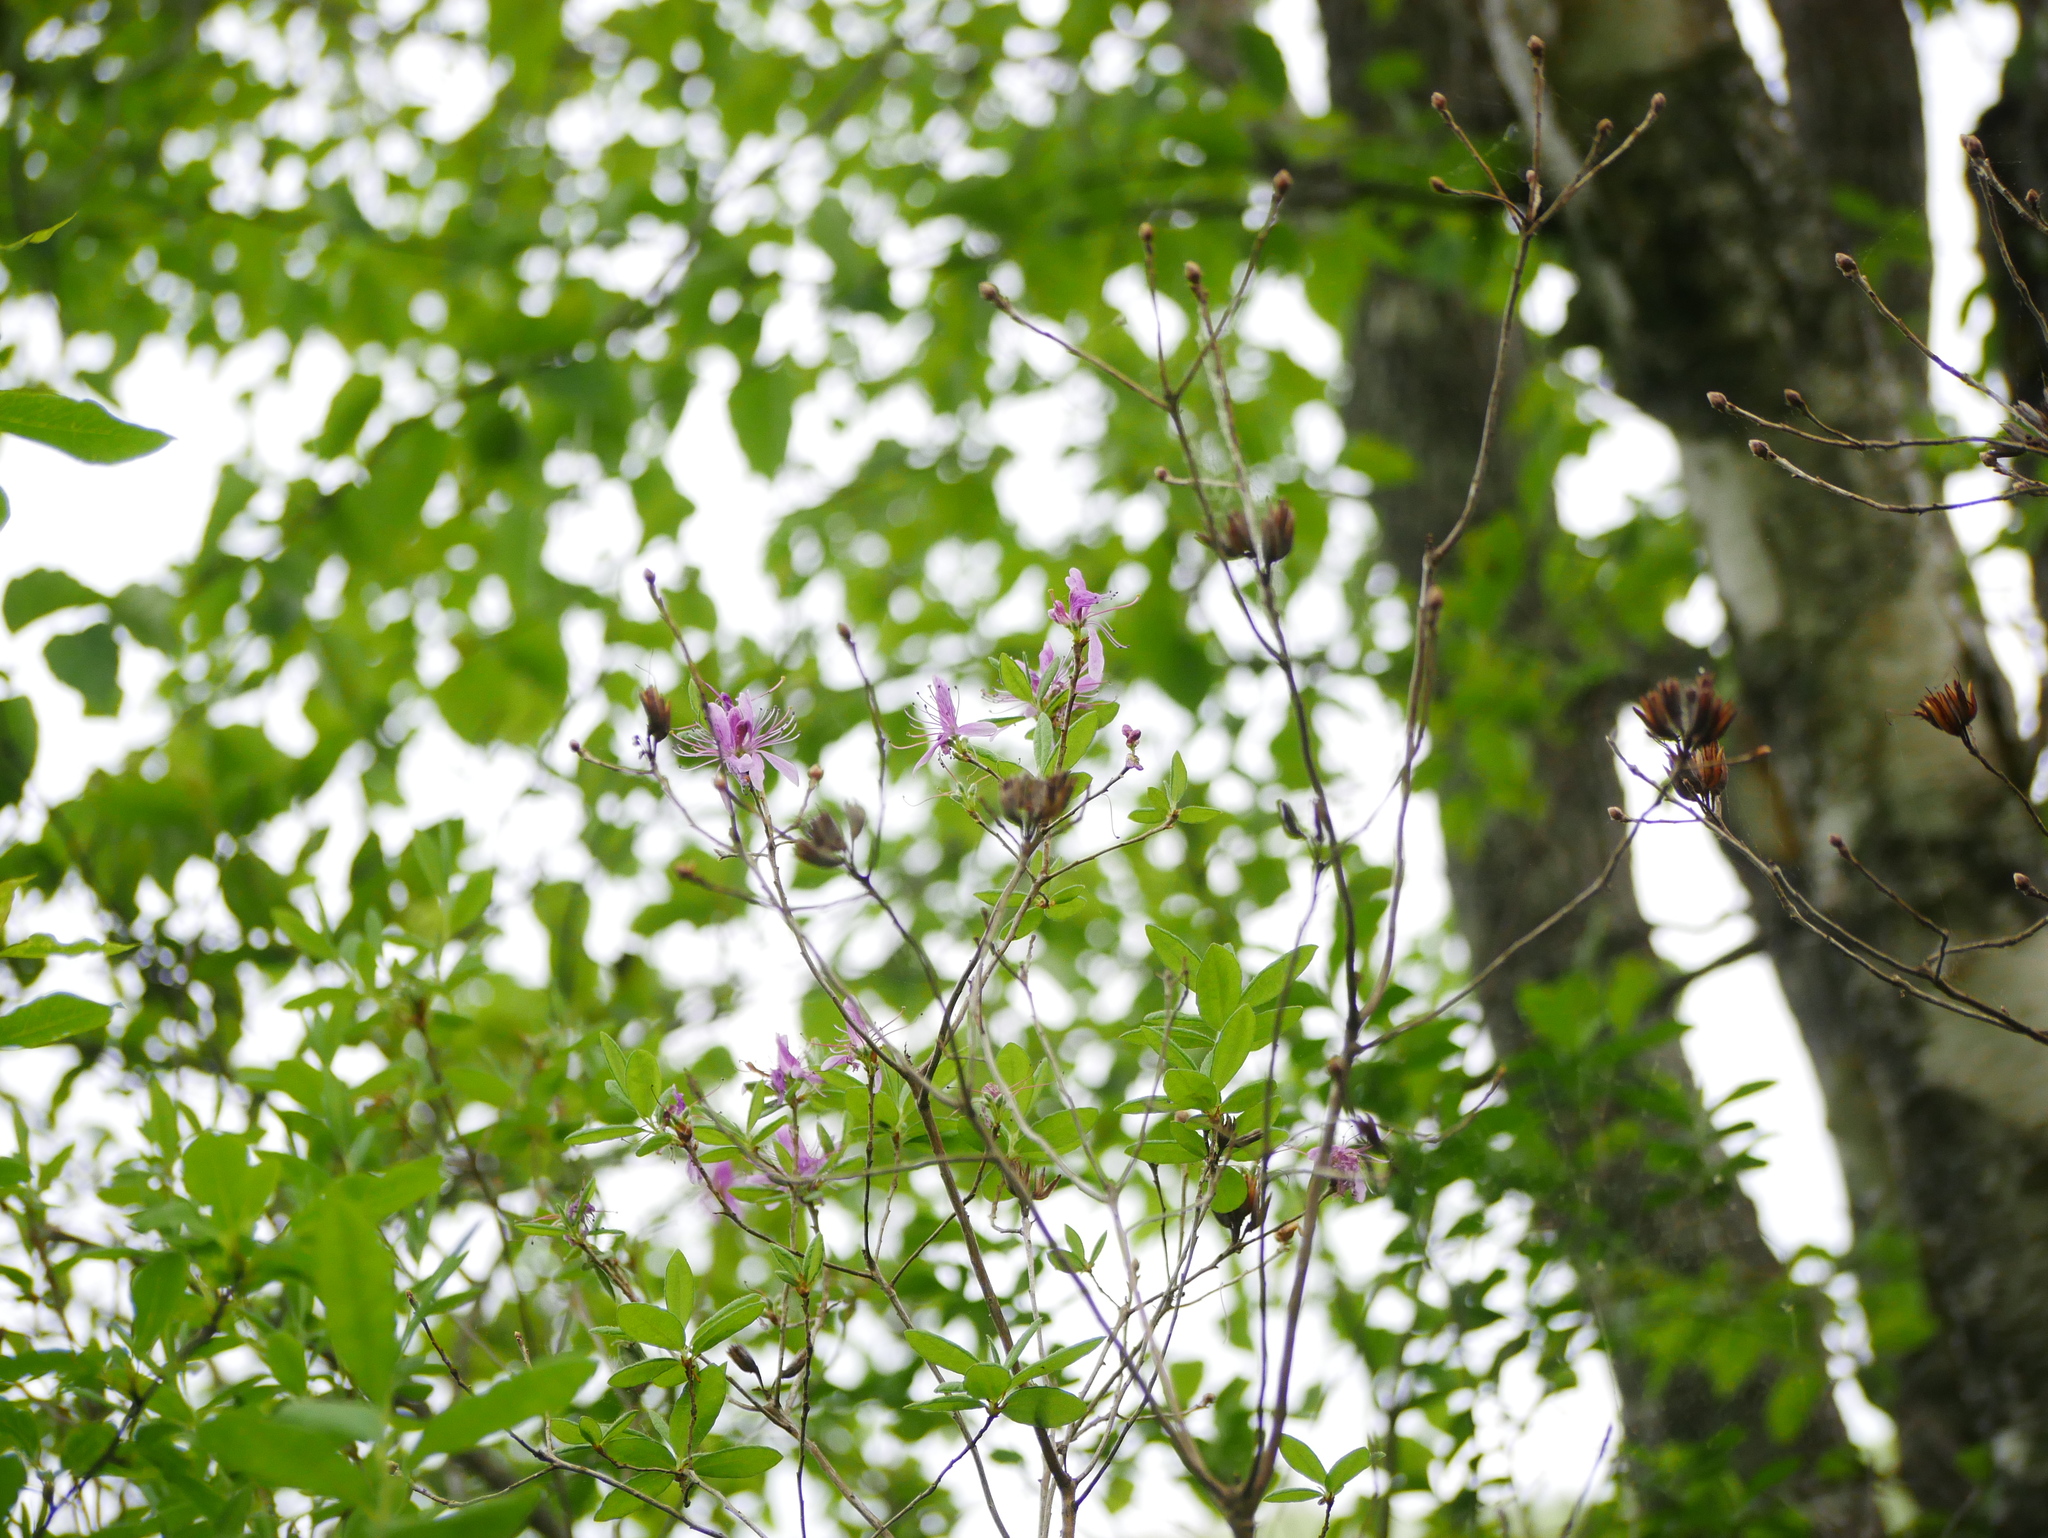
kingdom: Plantae
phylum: Tracheophyta
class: Magnoliopsida
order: Ericales
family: Ericaceae
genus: Rhododendron
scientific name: Rhododendron canadense
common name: Rhodora
